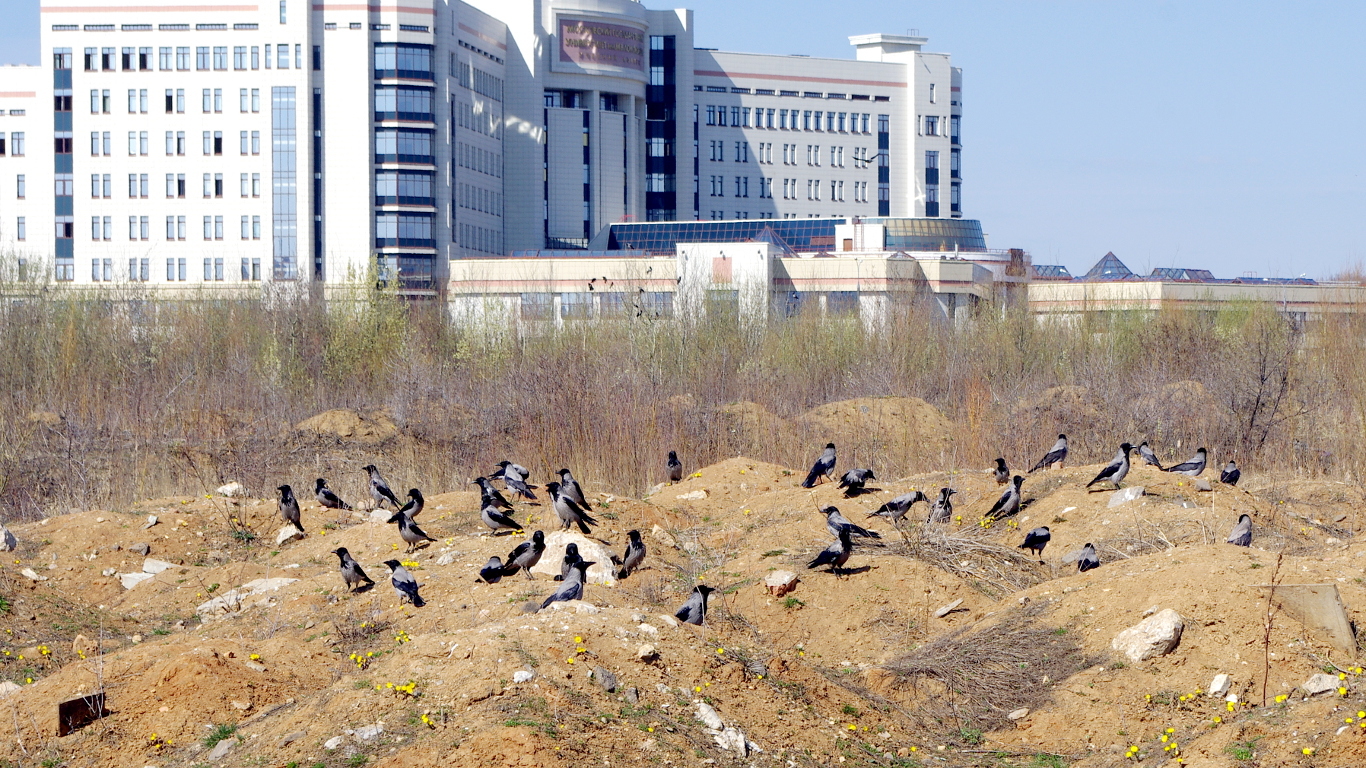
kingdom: Animalia
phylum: Chordata
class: Aves
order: Passeriformes
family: Corvidae
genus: Corvus
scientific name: Corvus cornix
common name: Hooded crow
